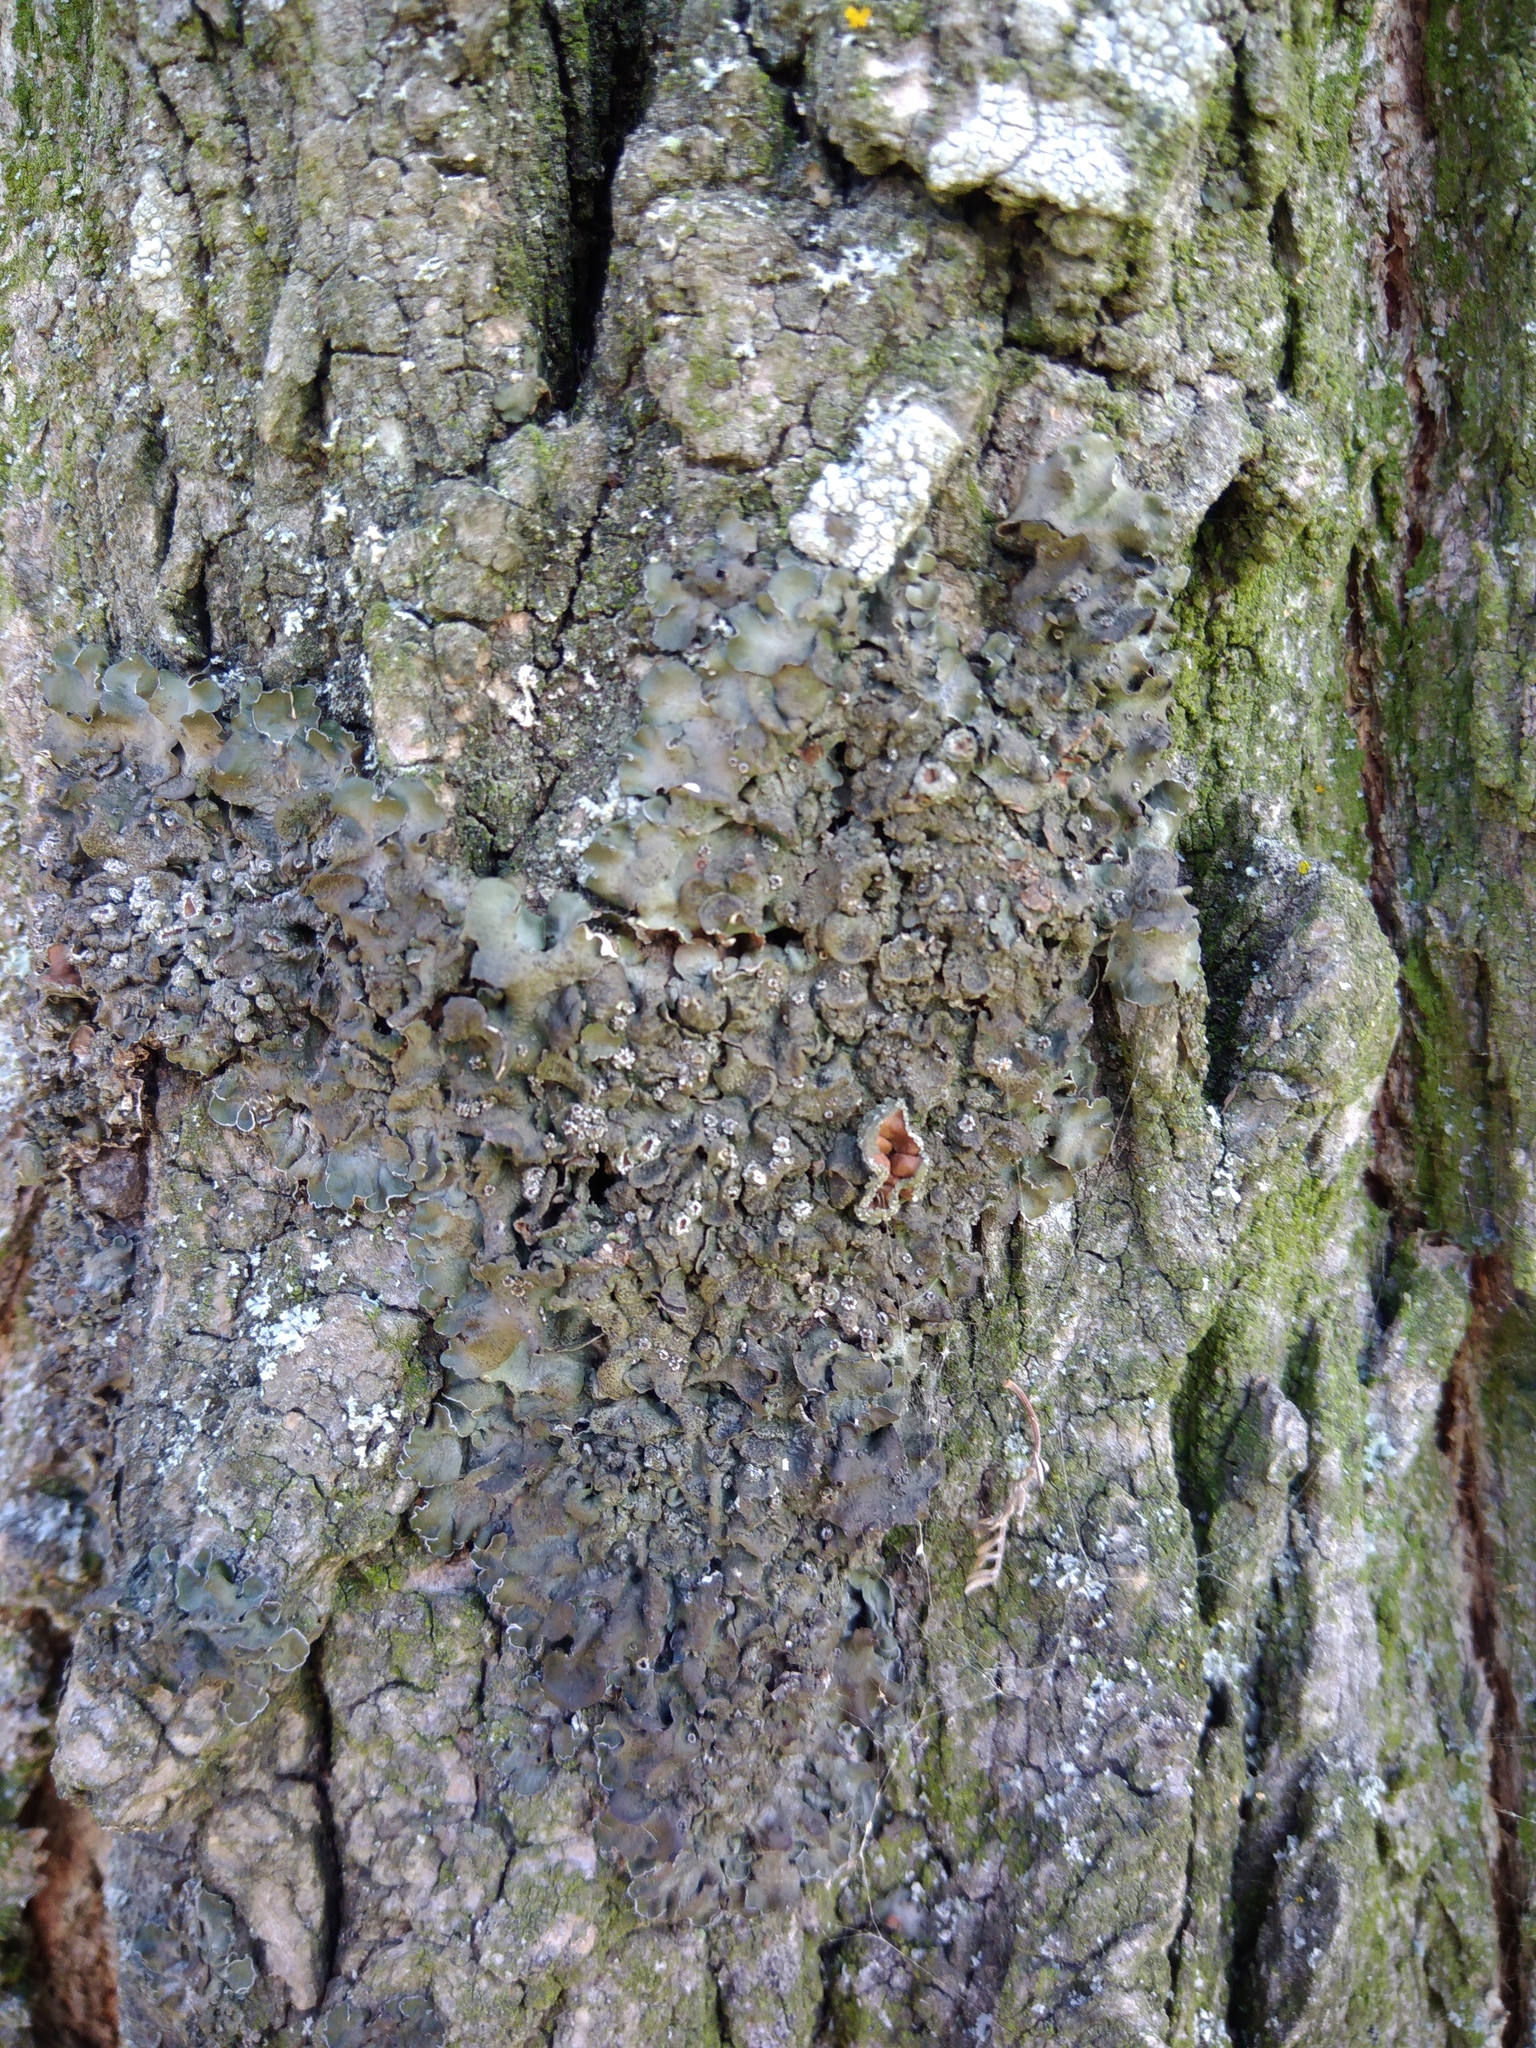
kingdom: Fungi
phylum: Ascomycota
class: Lecanoromycetes
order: Lecanorales
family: Parmeliaceae
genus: Pleurosticta
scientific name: Pleurosticta acetabulum
